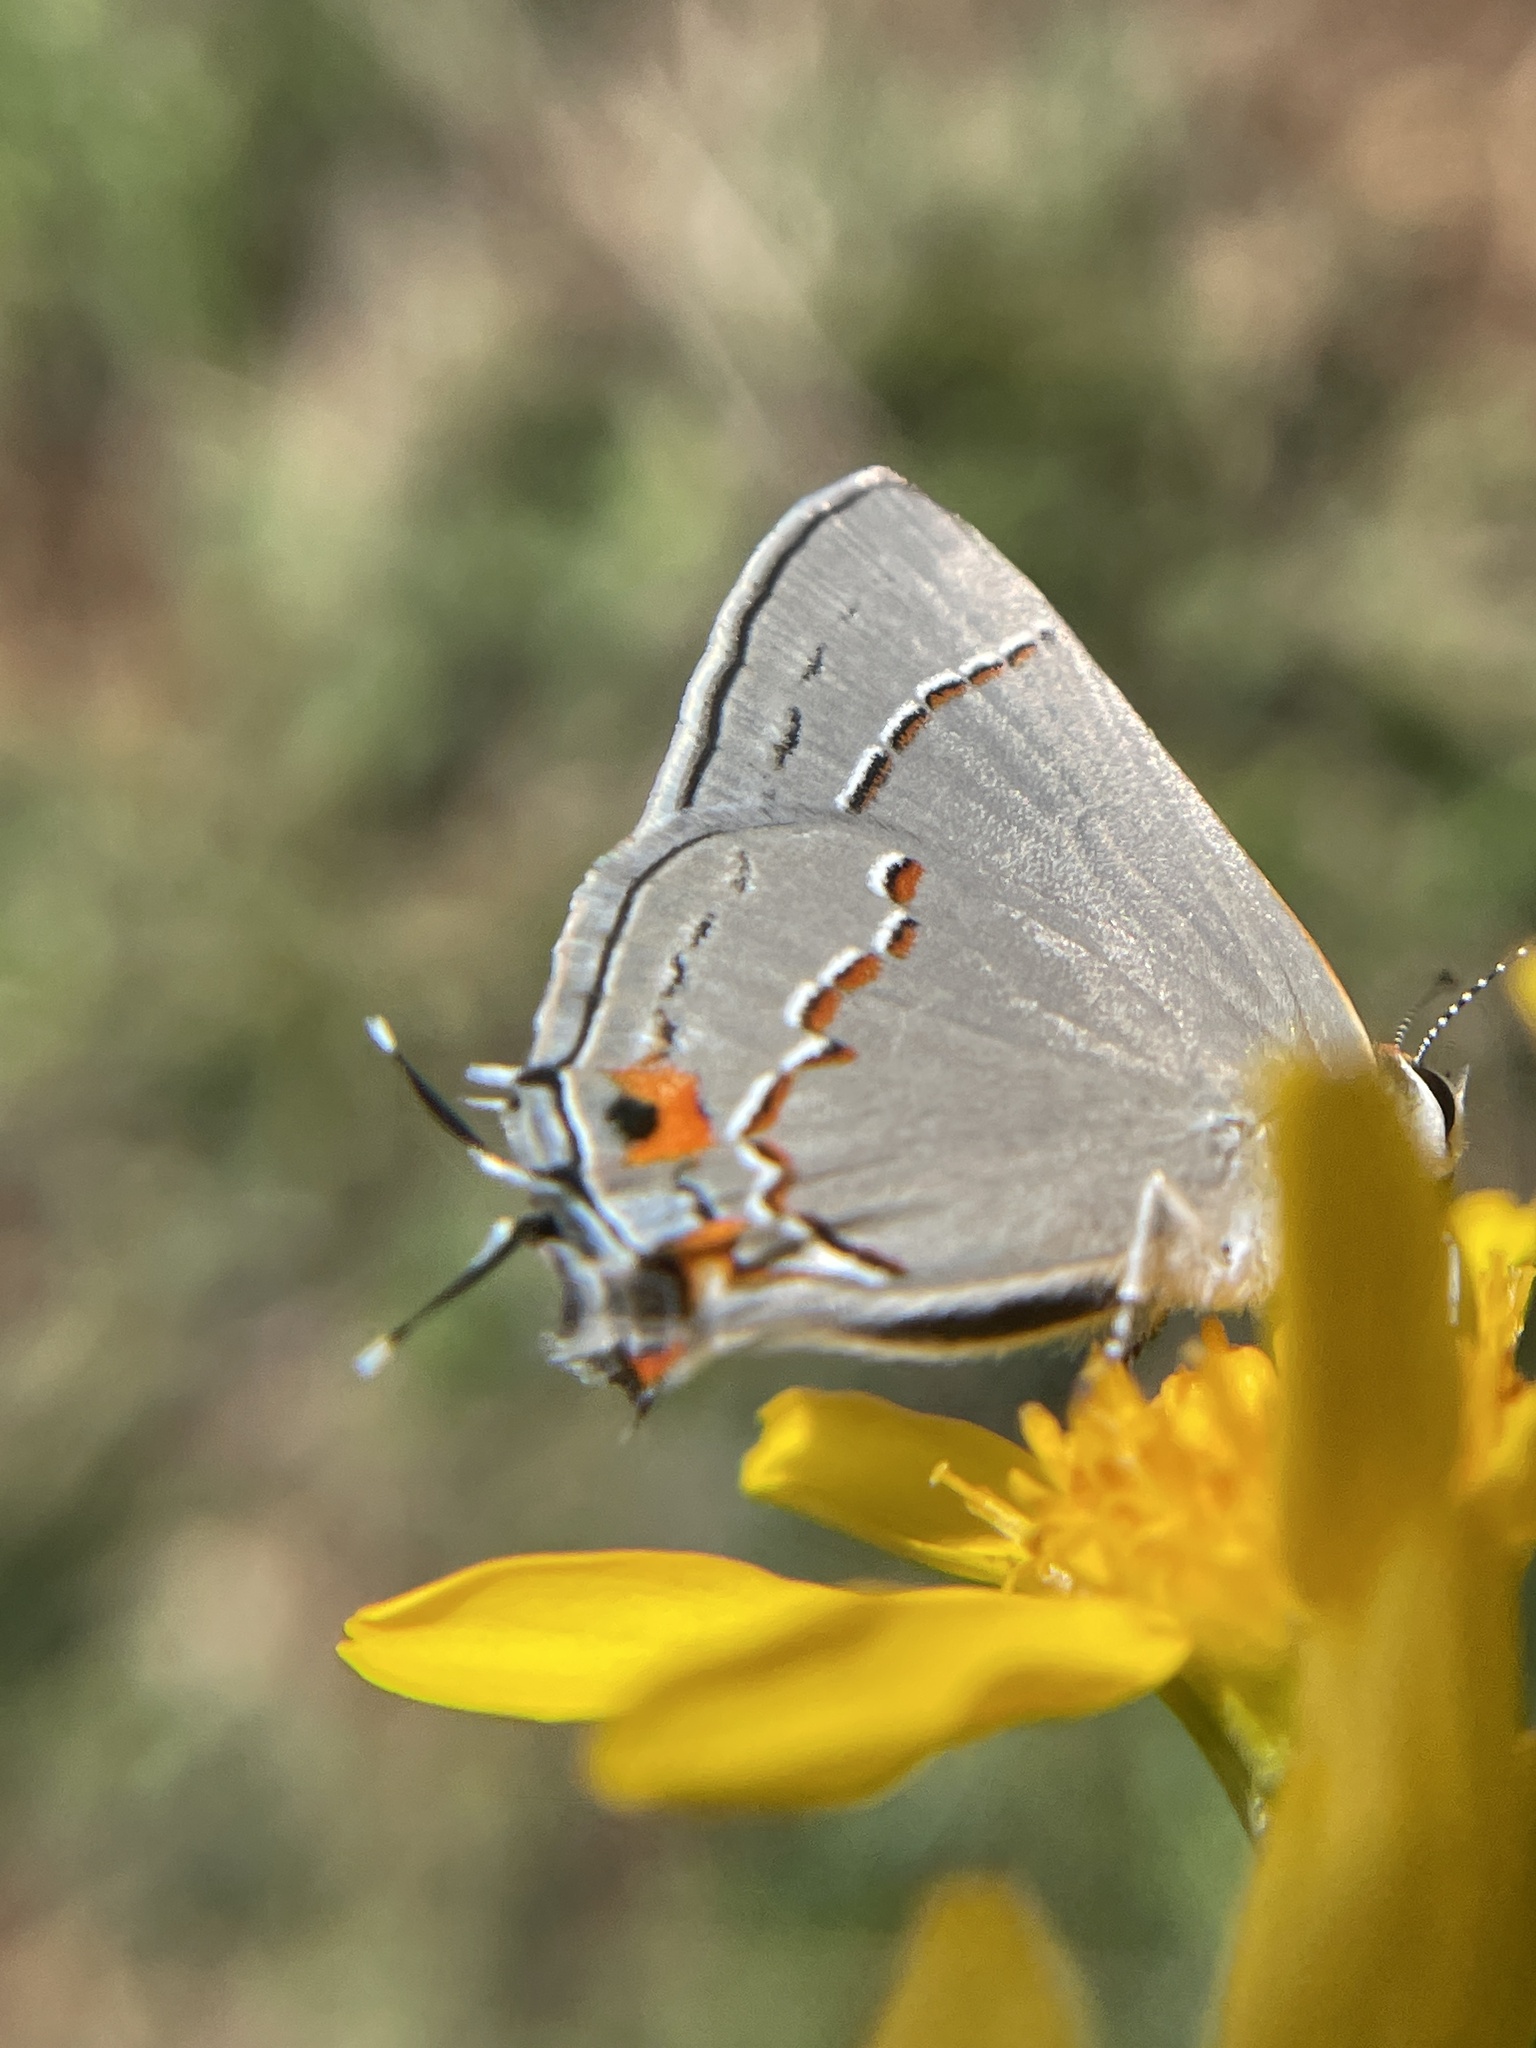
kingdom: Animalia
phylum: Arthropoda
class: Insecta
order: Lepidoptera
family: Lycaenidae
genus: Strymon
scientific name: Strymon melinus
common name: Gray hairstreak
